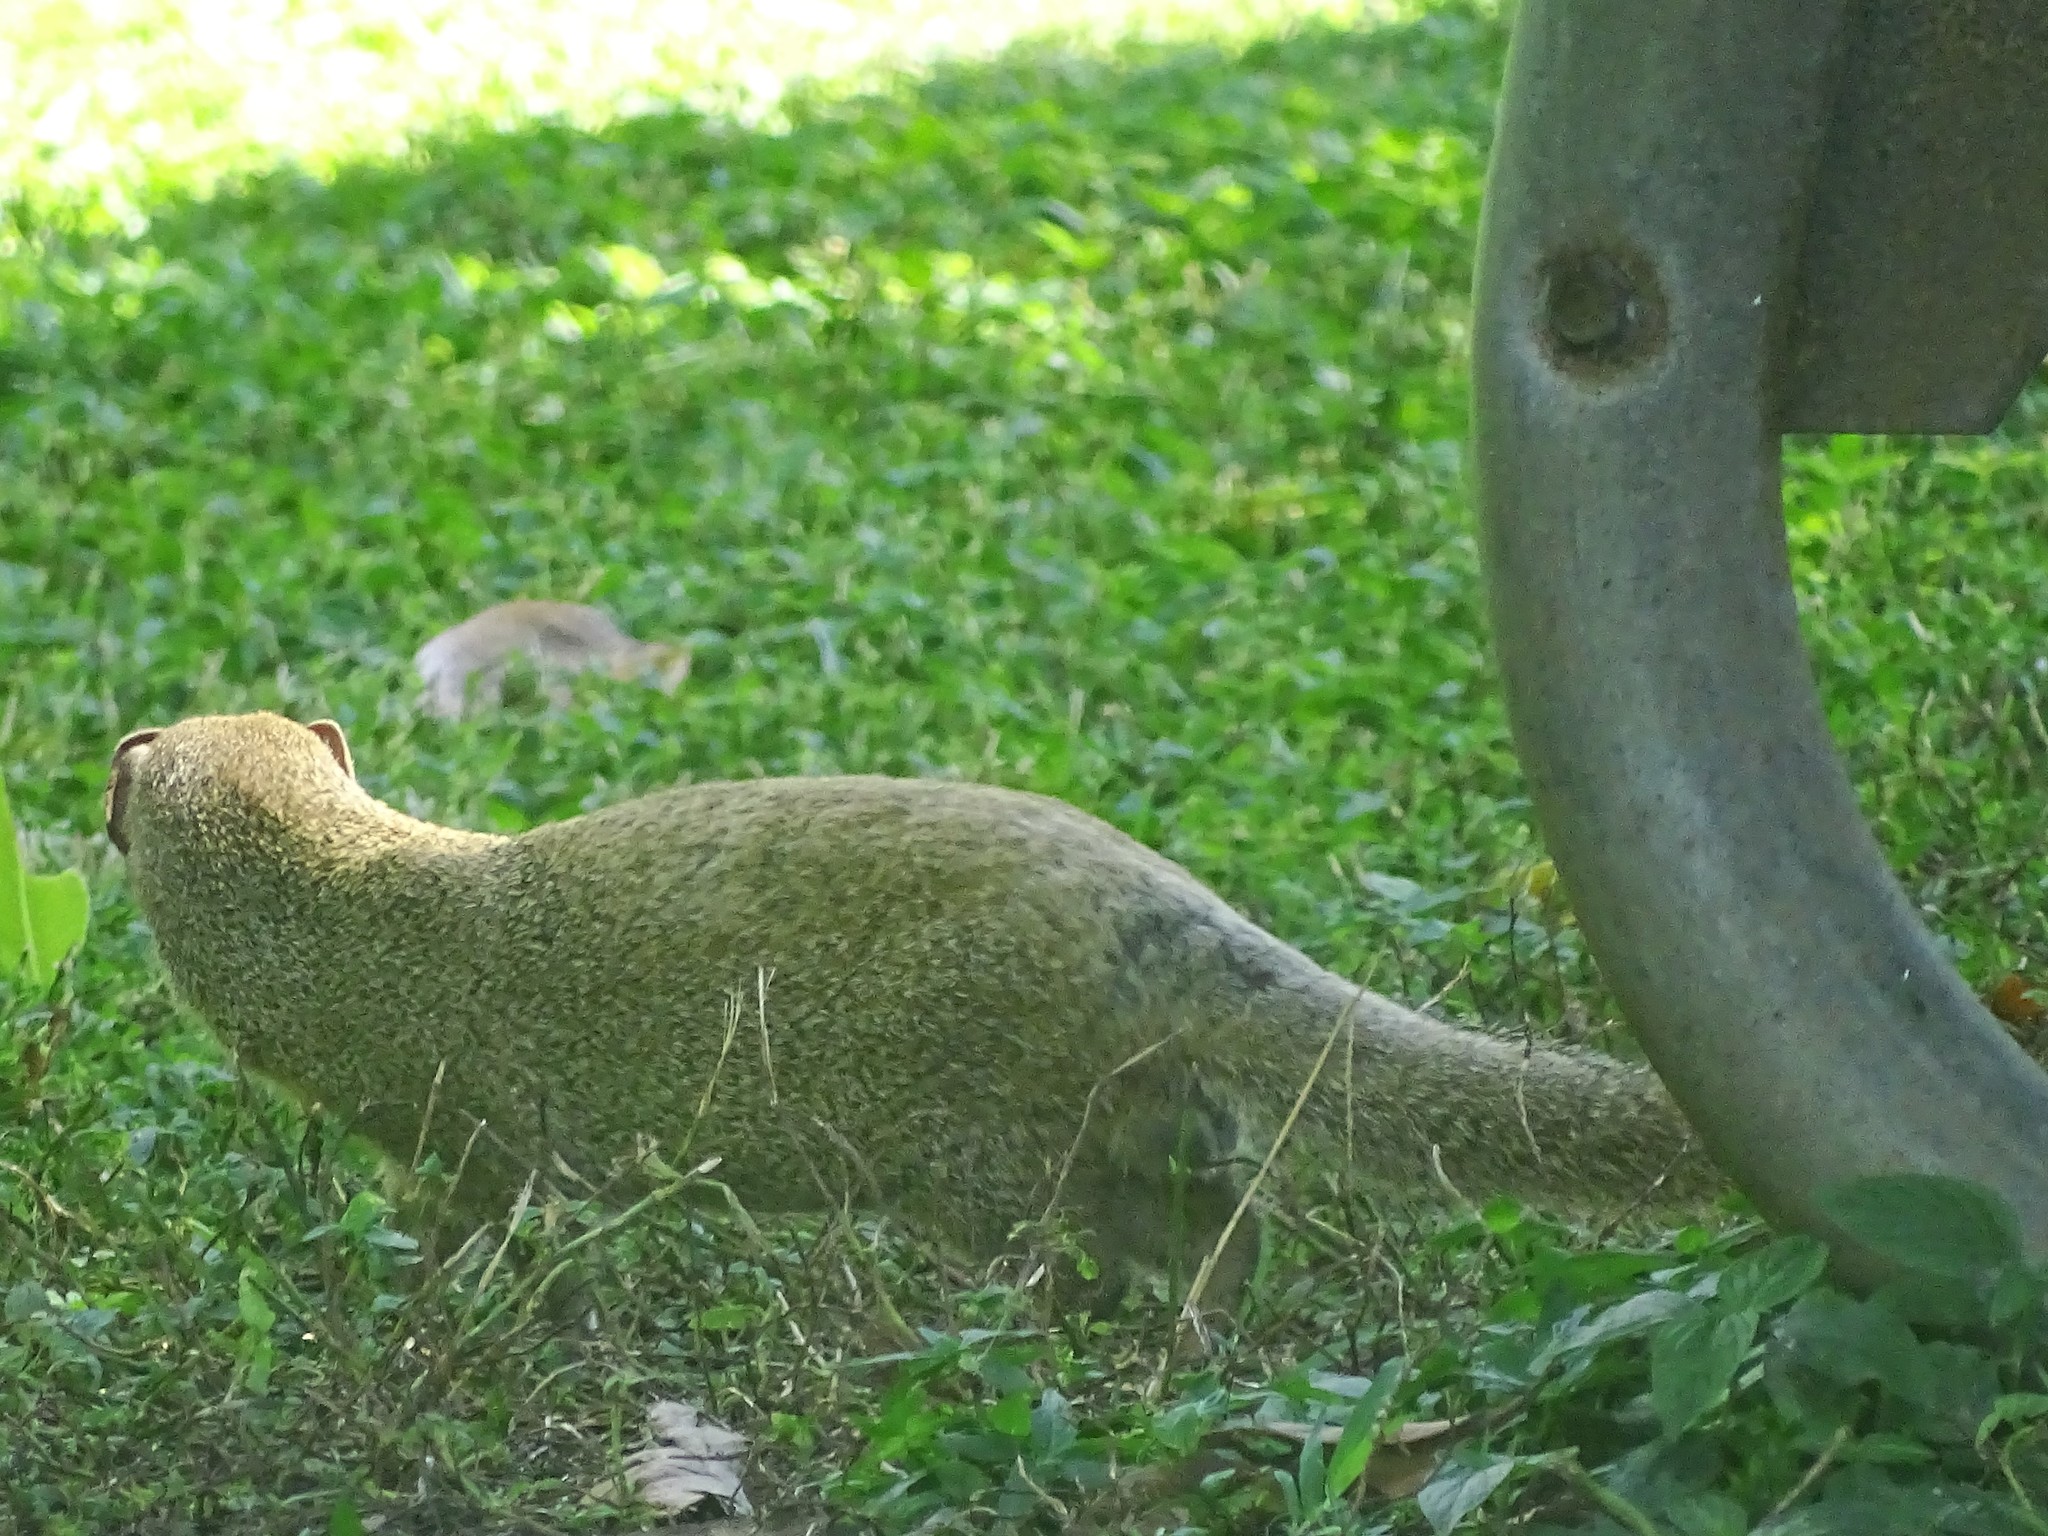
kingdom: Animalia
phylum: Chordata
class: Mammalia
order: Carnivora
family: Herpestidae
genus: Herpestes
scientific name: Herpestes javanicus
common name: Small asian mongoose
